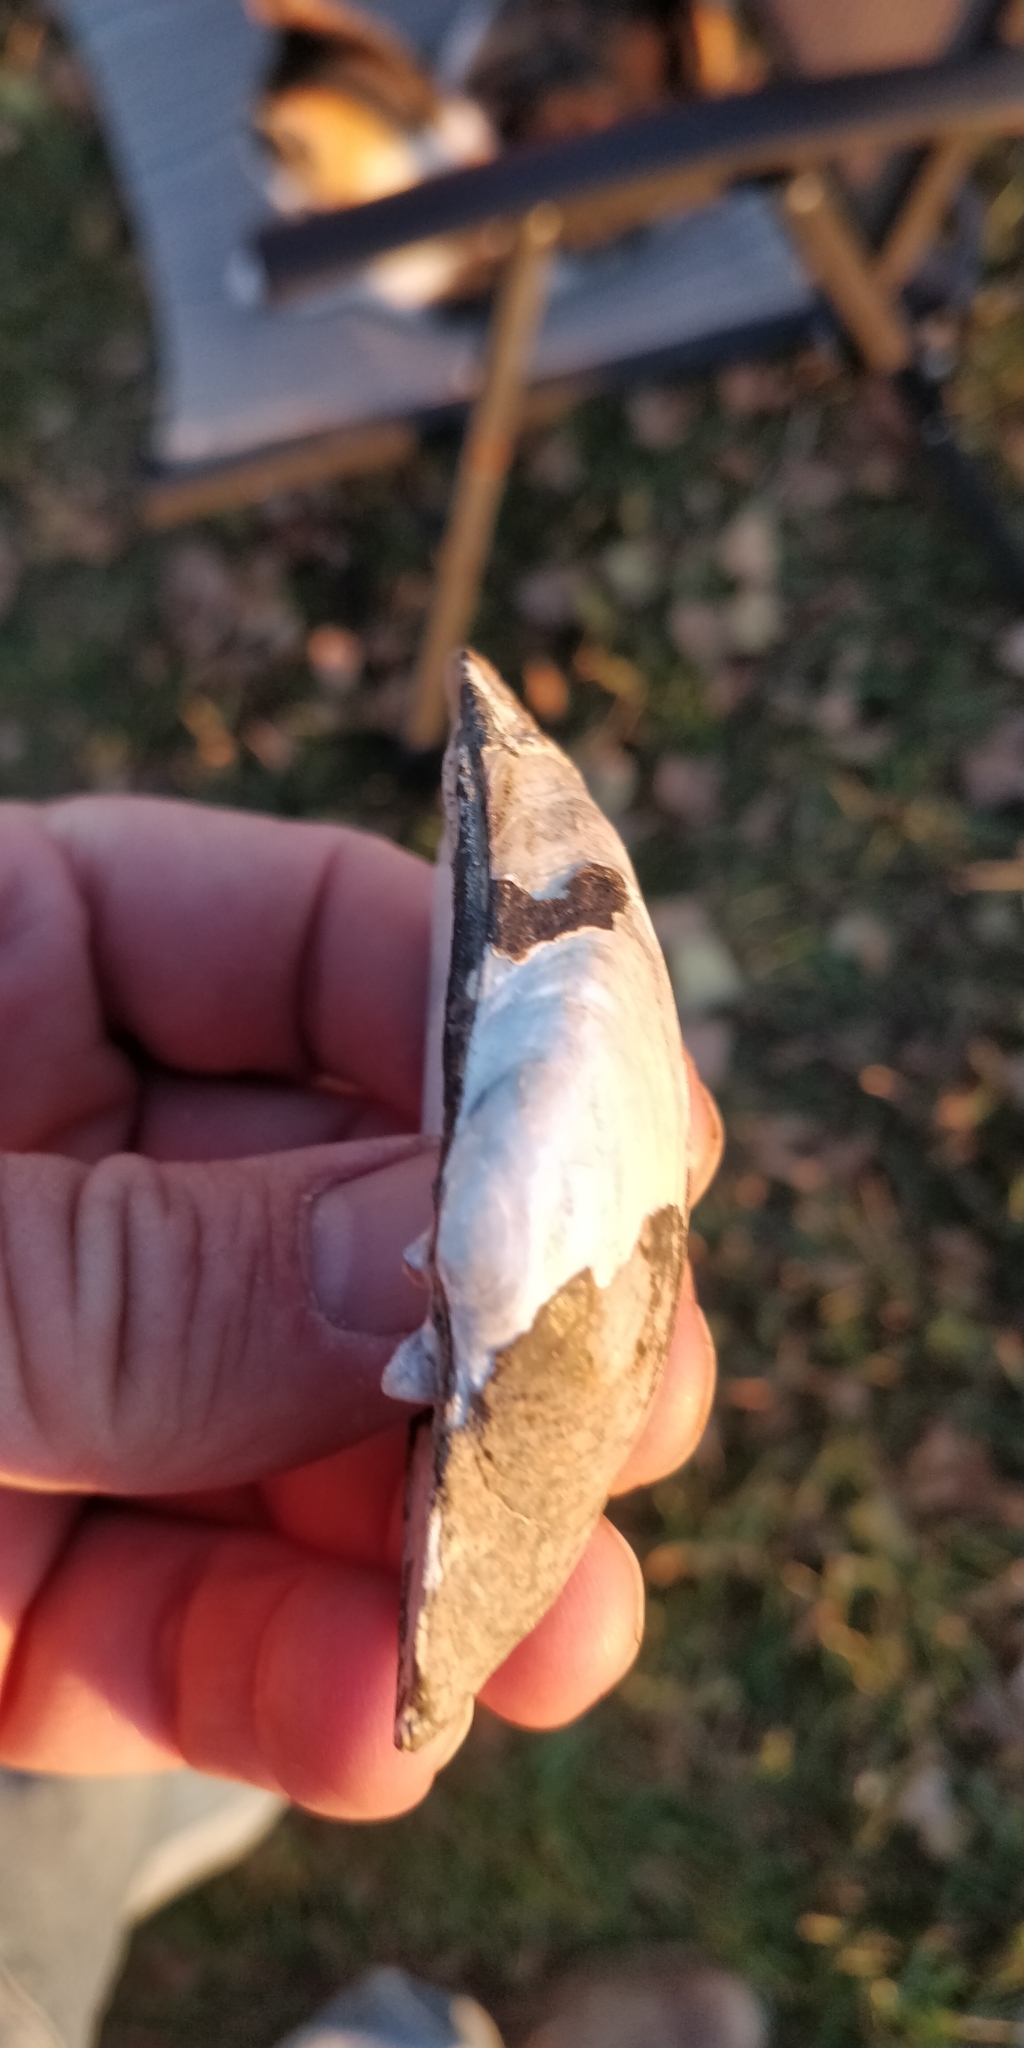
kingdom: Animalia
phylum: Mollusca
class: Bivalvia
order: Unionida
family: Unionidae
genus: Lampsilis
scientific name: Lampsilis siliquoidea
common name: Fatmucket
